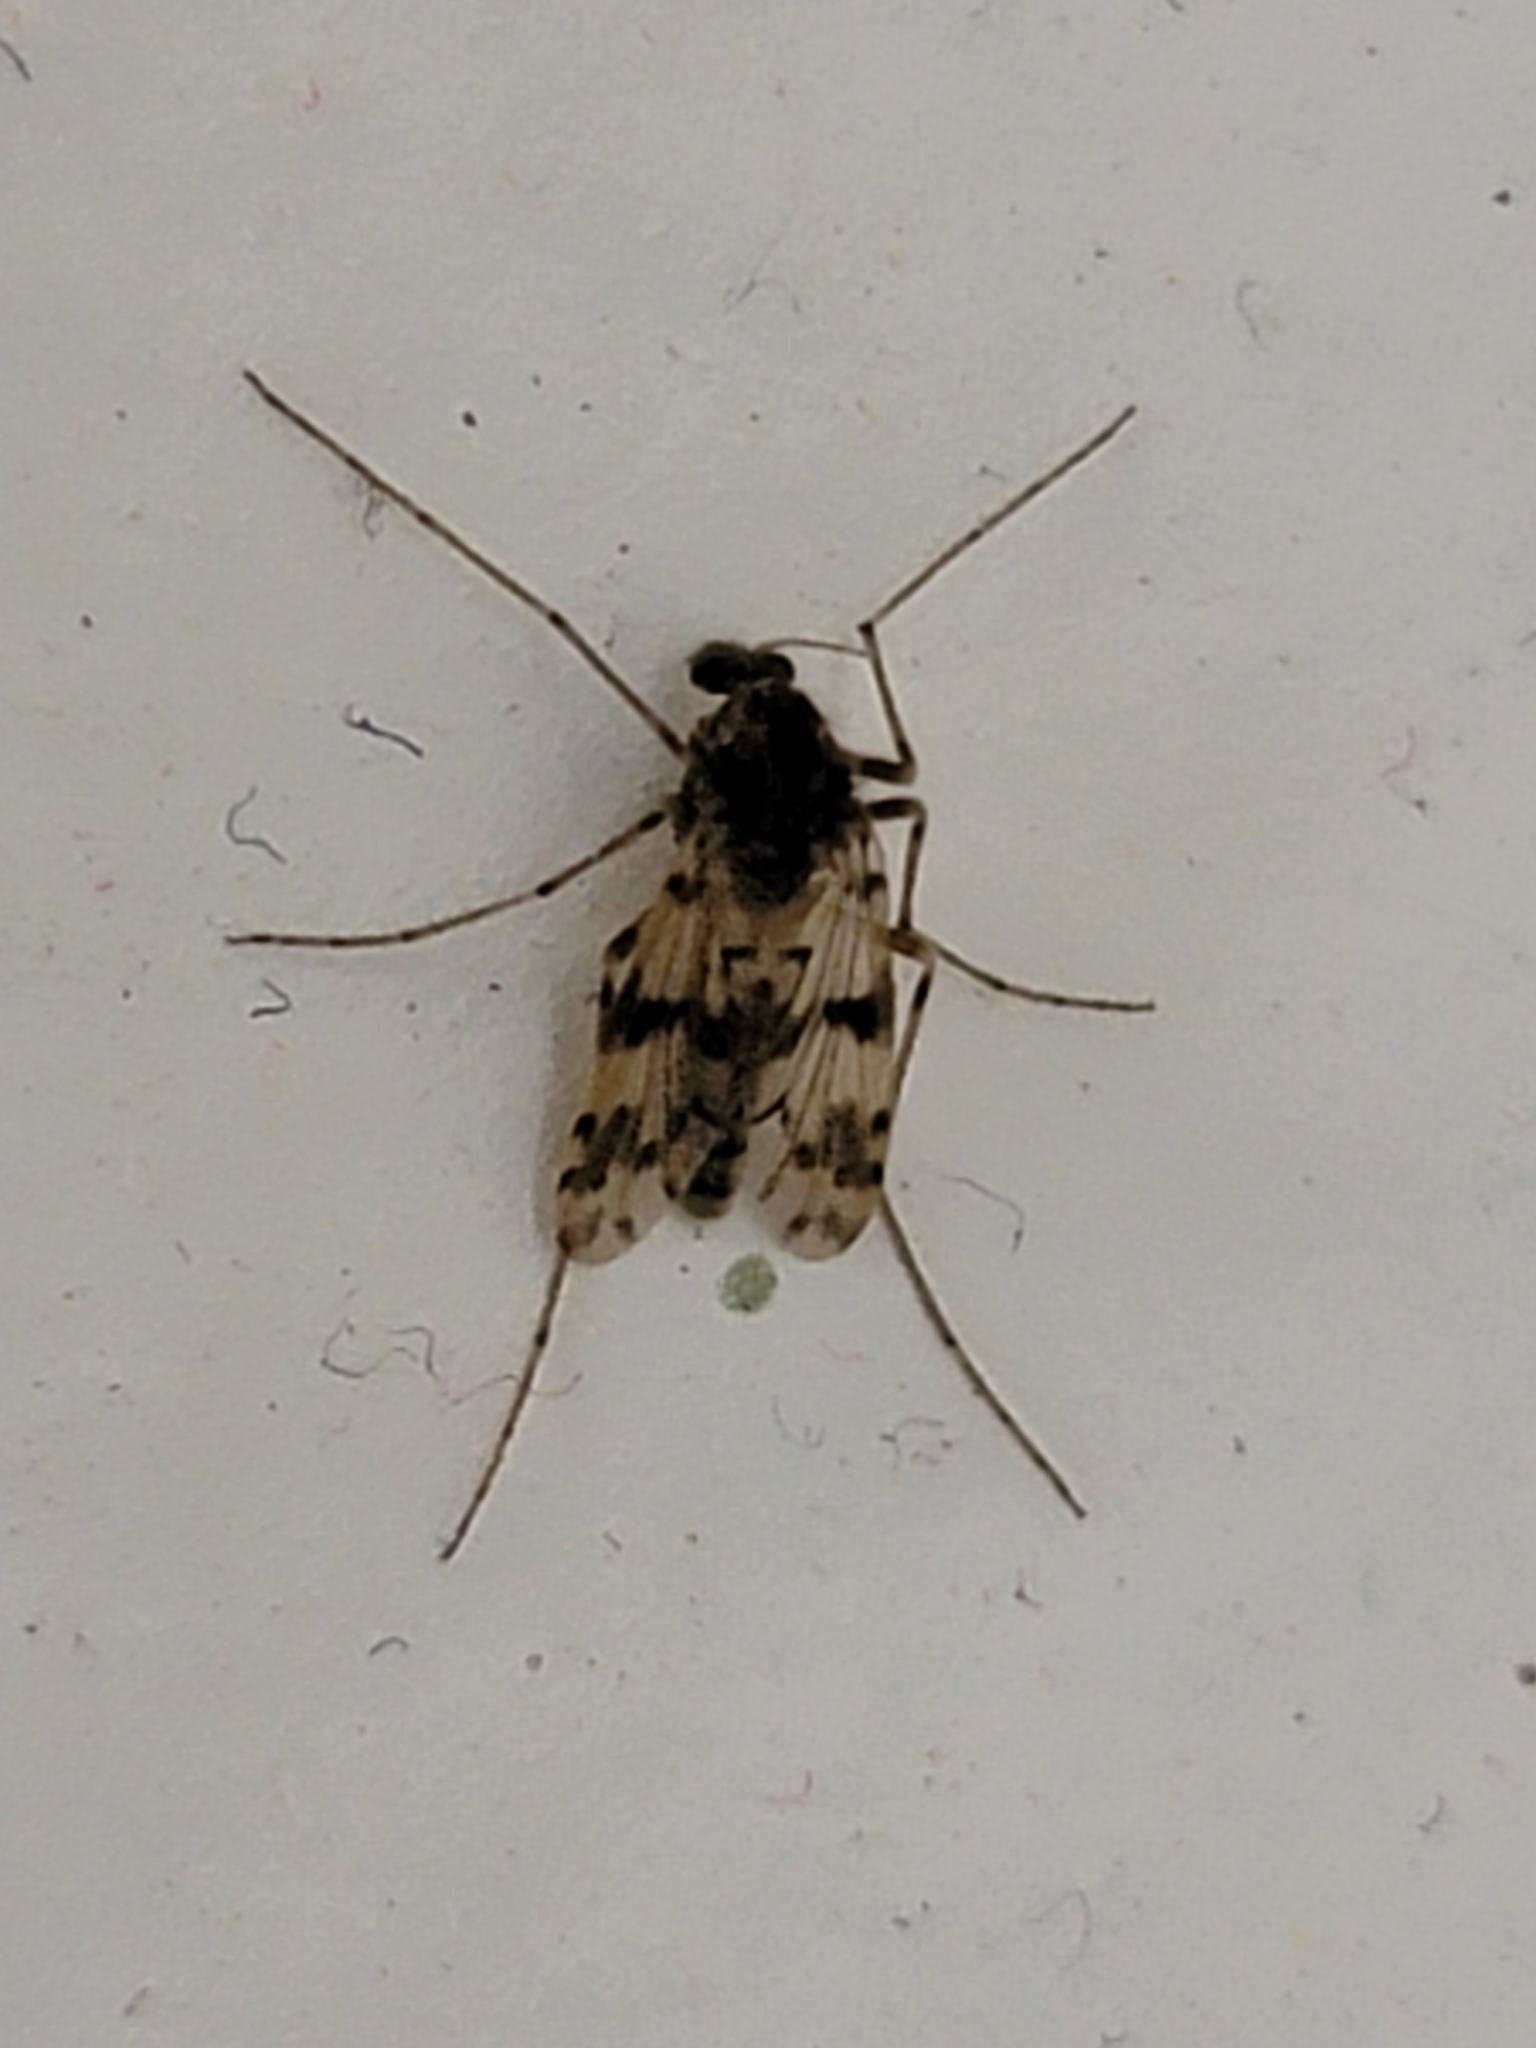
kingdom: Animalia
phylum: Arthropoda
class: Insecta
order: Diptera
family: Chironomidae
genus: Alotanypus
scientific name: Alotanypus venusta
